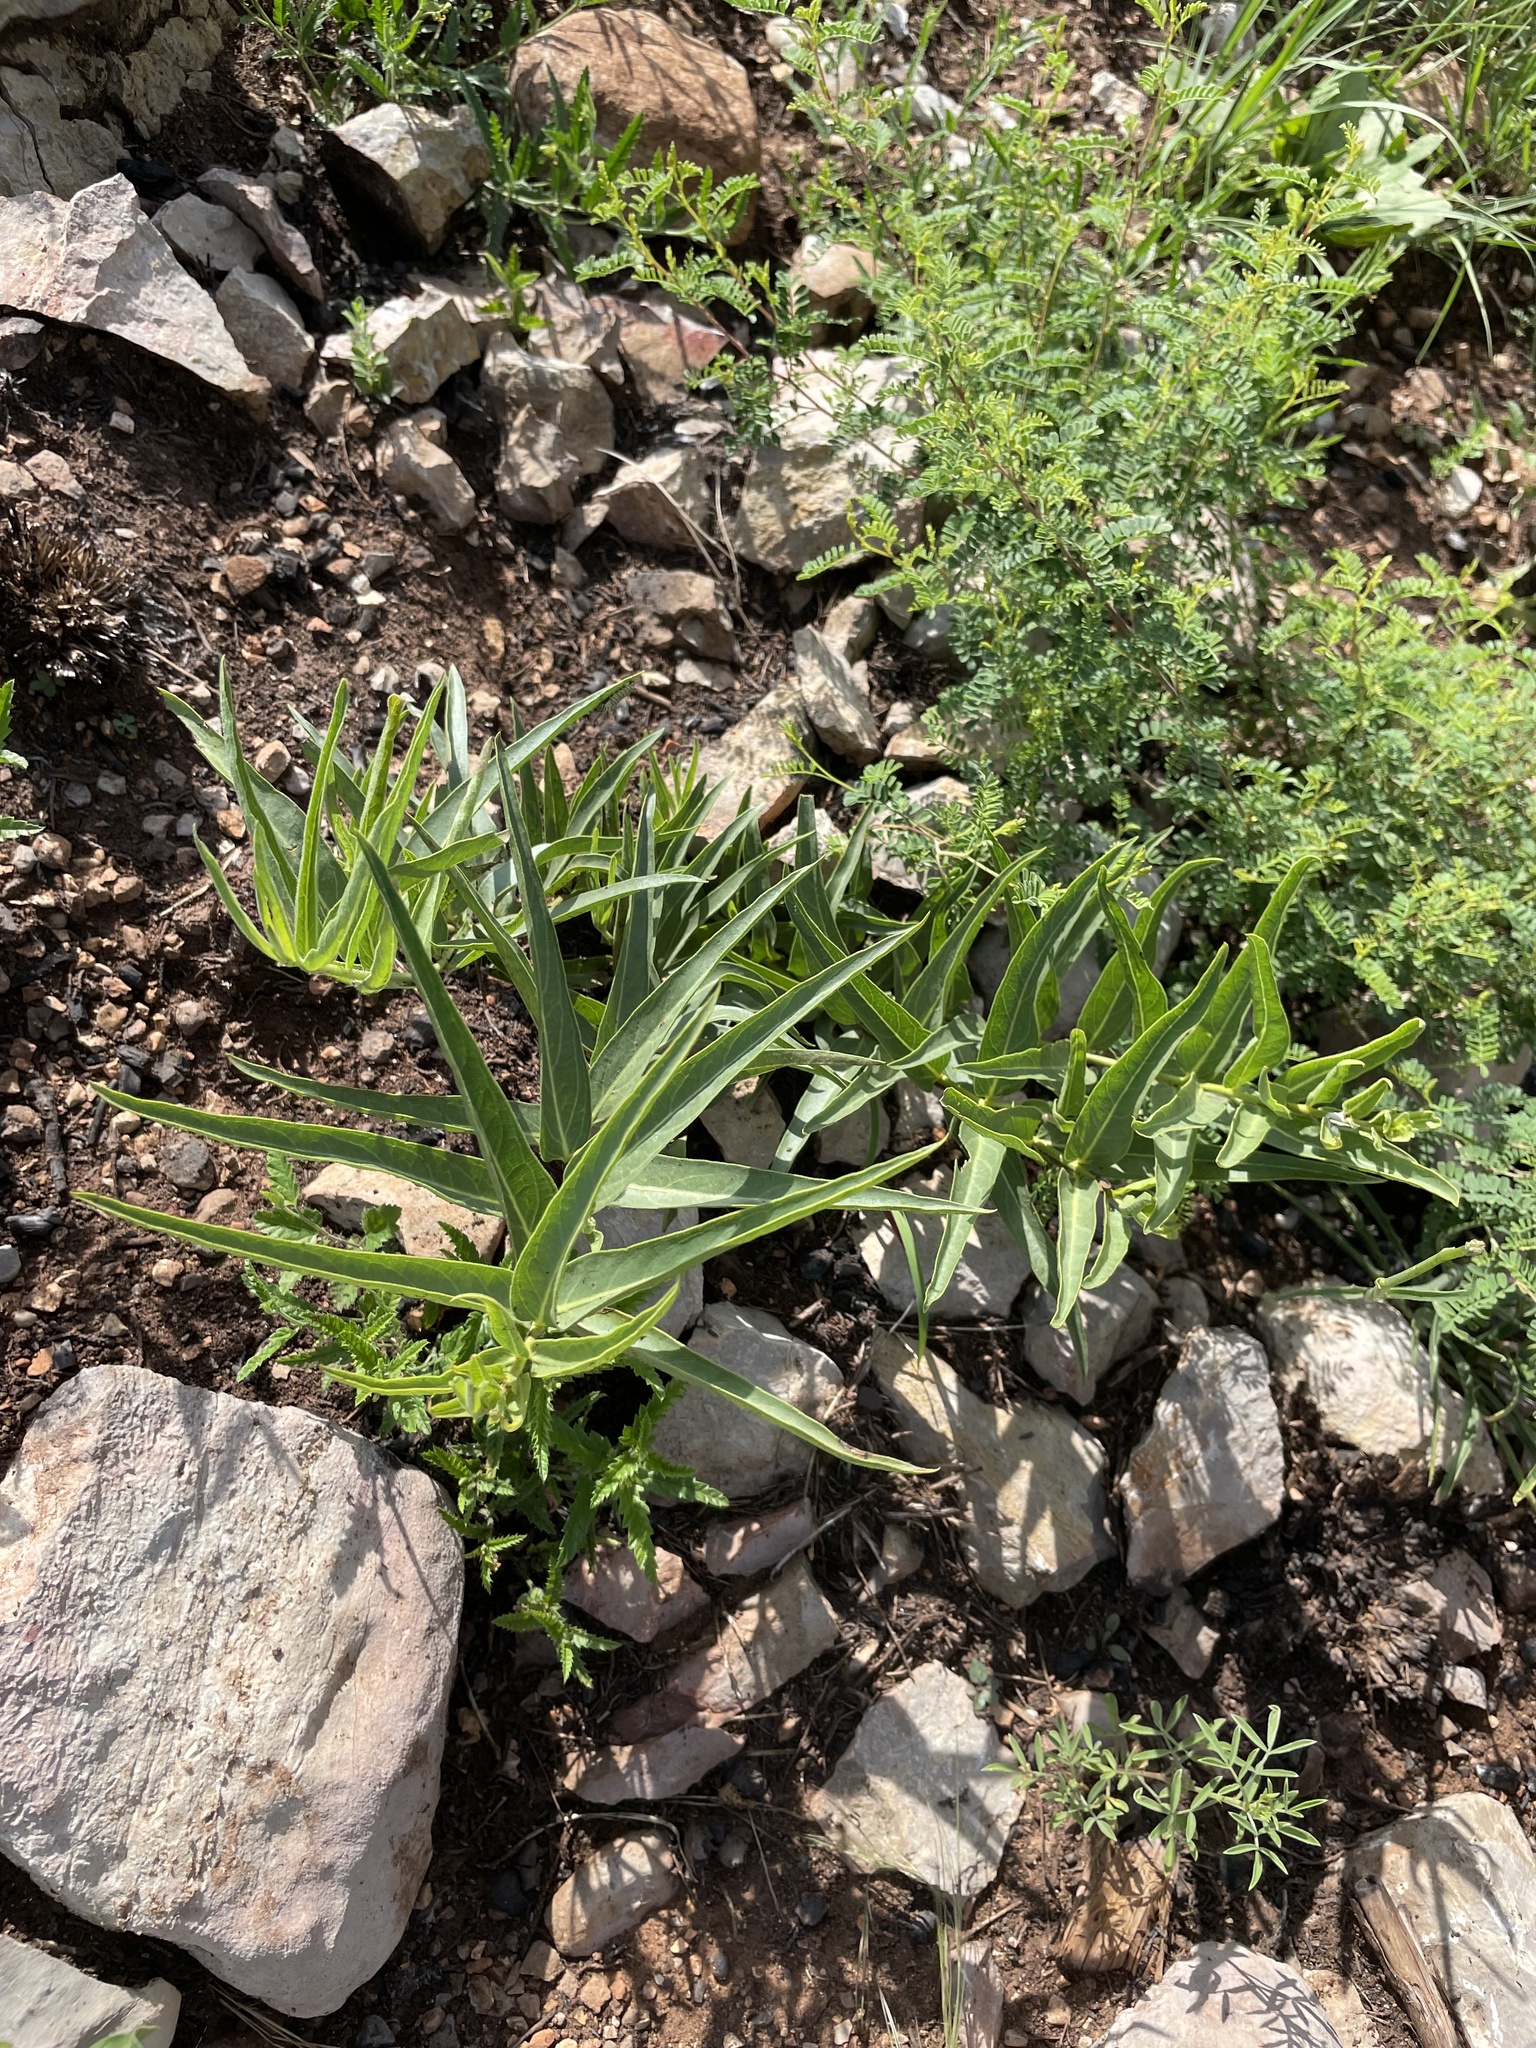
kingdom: Plantae
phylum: Tracheophyta
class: Magnoliopsida
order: Gentianales
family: Apocynaceae
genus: Asclepias
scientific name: Asclepias asperula
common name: Antelope horns
